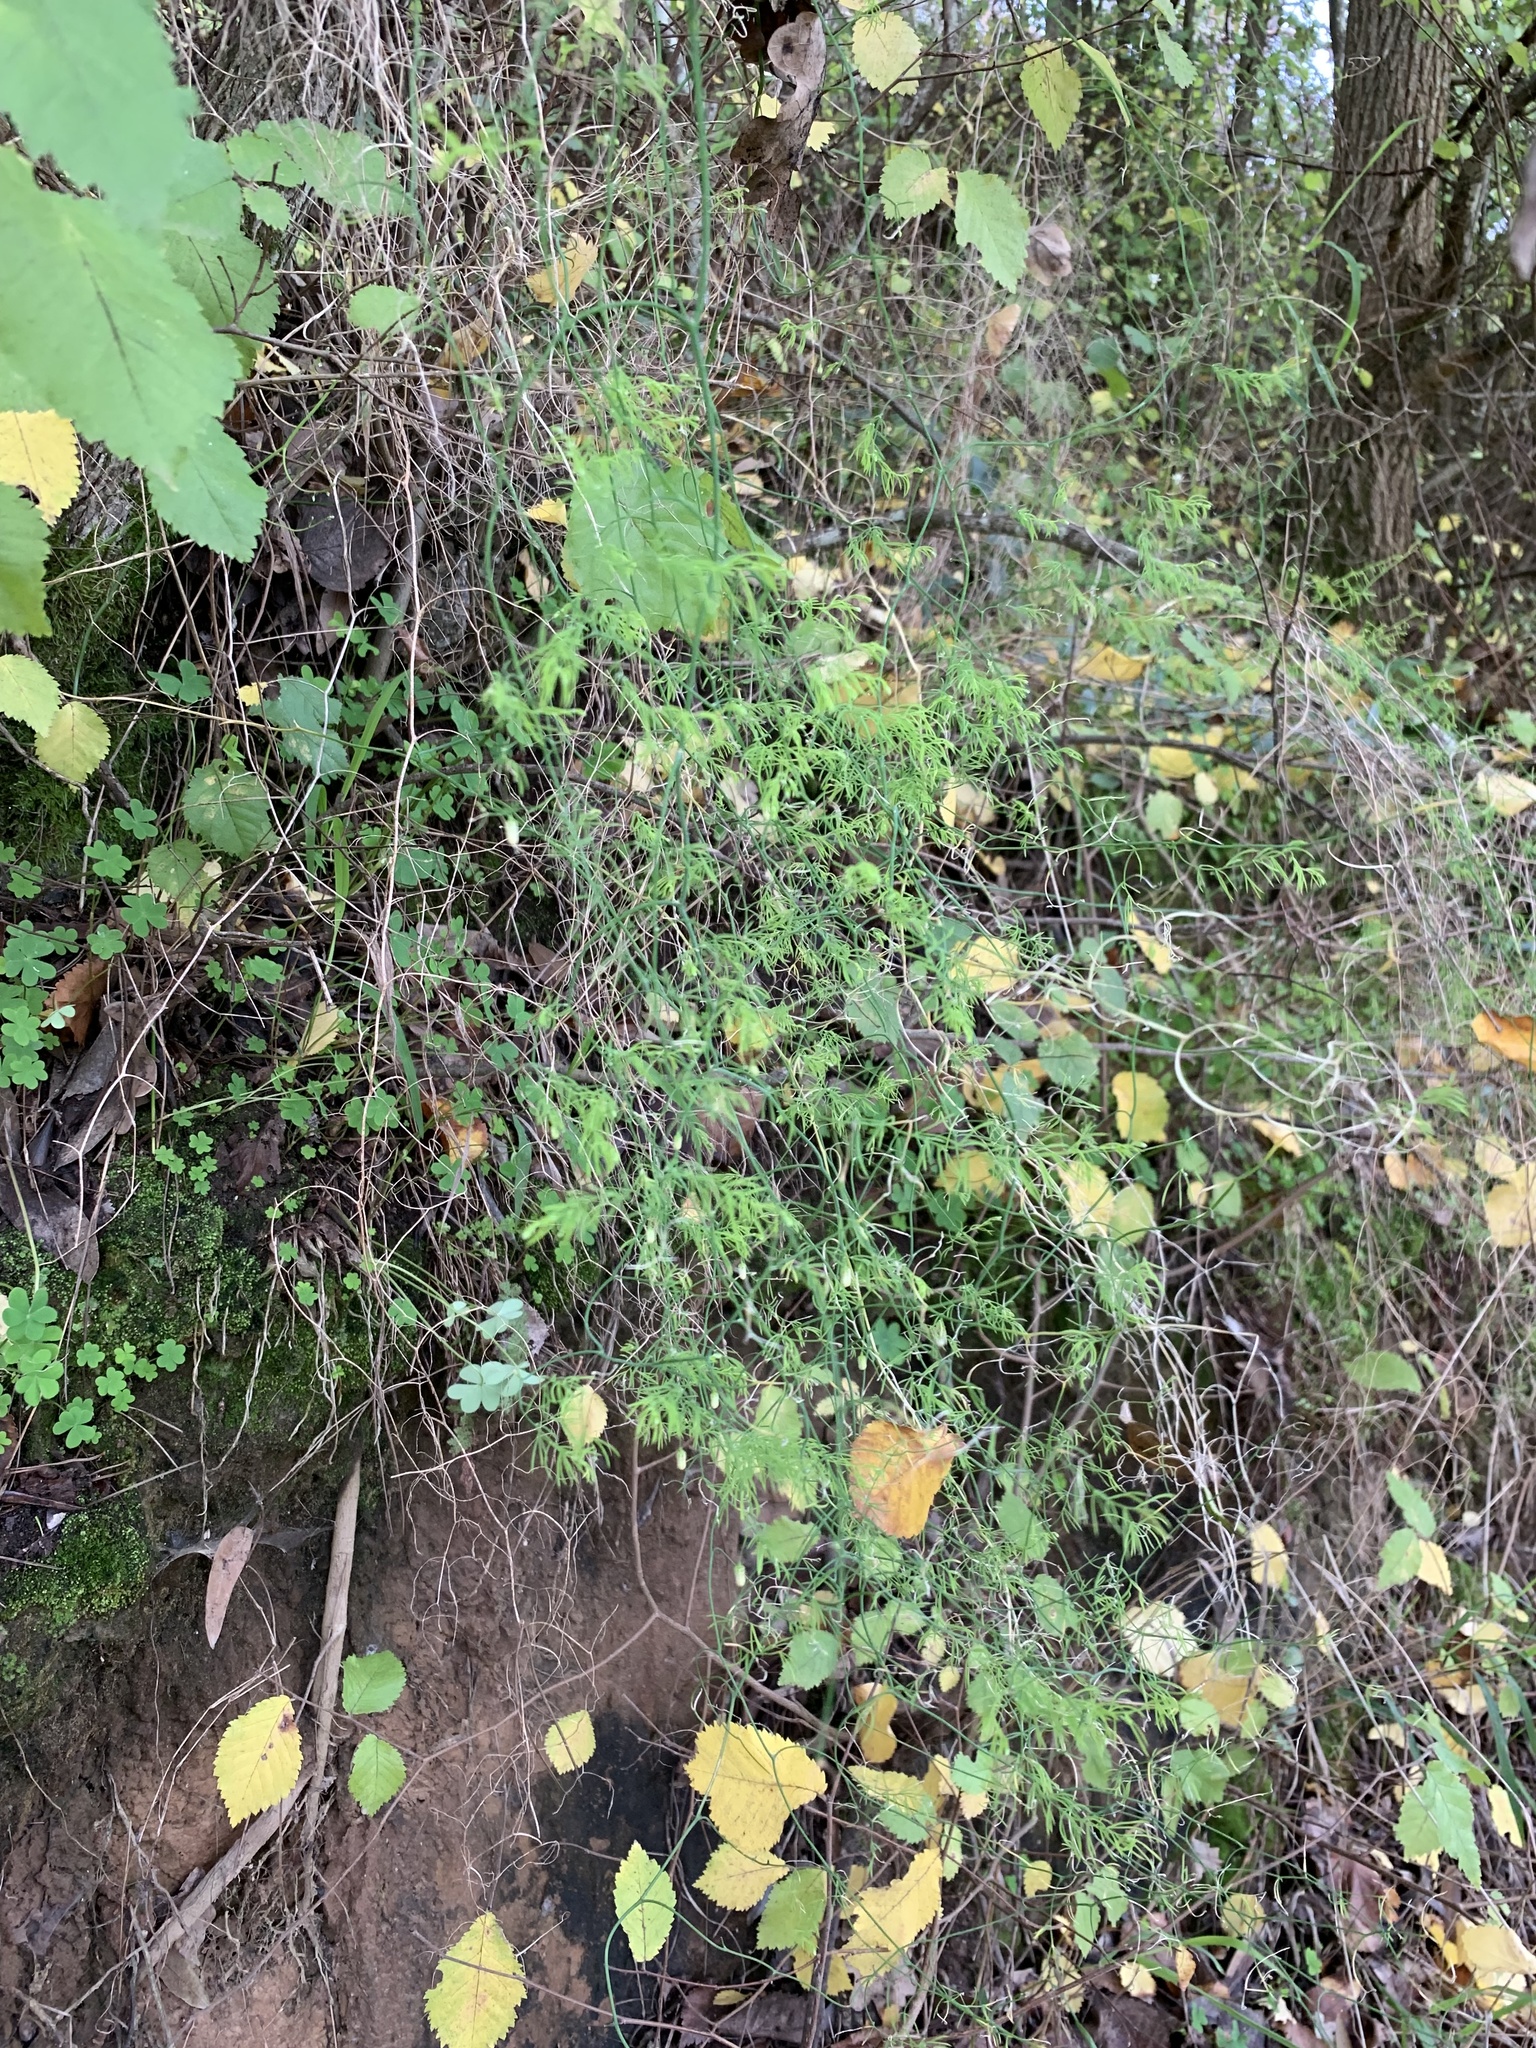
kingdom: Plantae
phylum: Tracheophyta
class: Liliopsida
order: Asparagales
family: Asparagaceae
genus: Asparagus
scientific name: Asparagus declinatus
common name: Bridal-creeper
